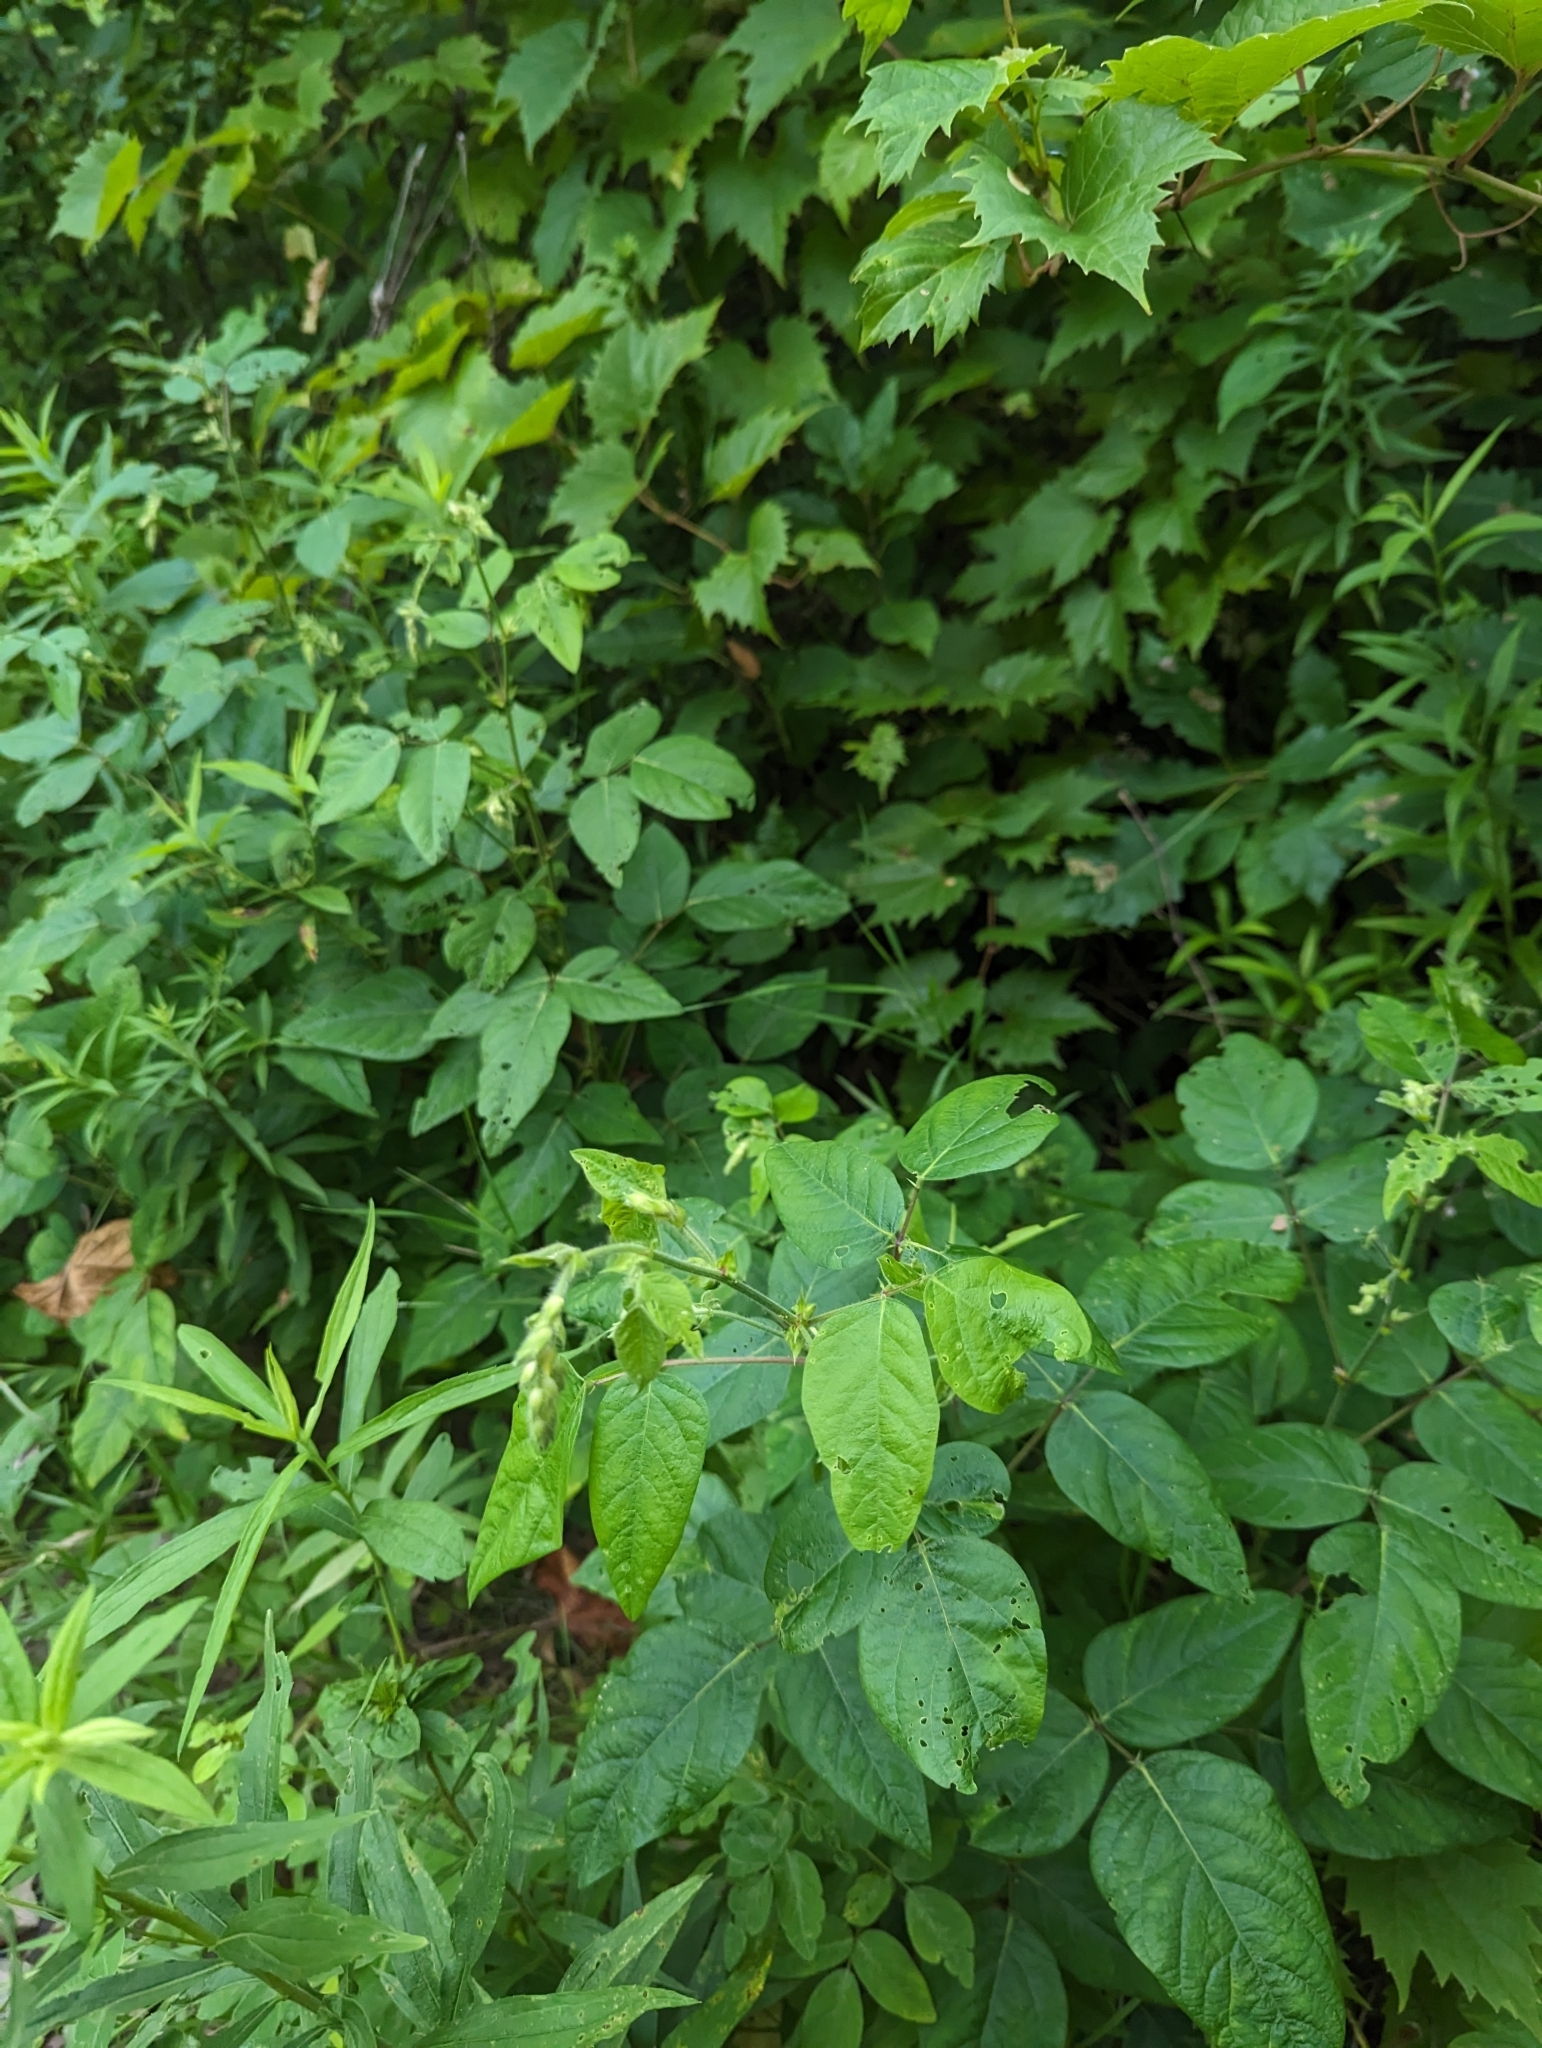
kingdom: Plantae
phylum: Tracheophyta
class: Magnoliopsida
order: Fabales
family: Fabaceae
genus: Desmodium
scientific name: Desmodium canescens
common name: Hoary tick-clover
